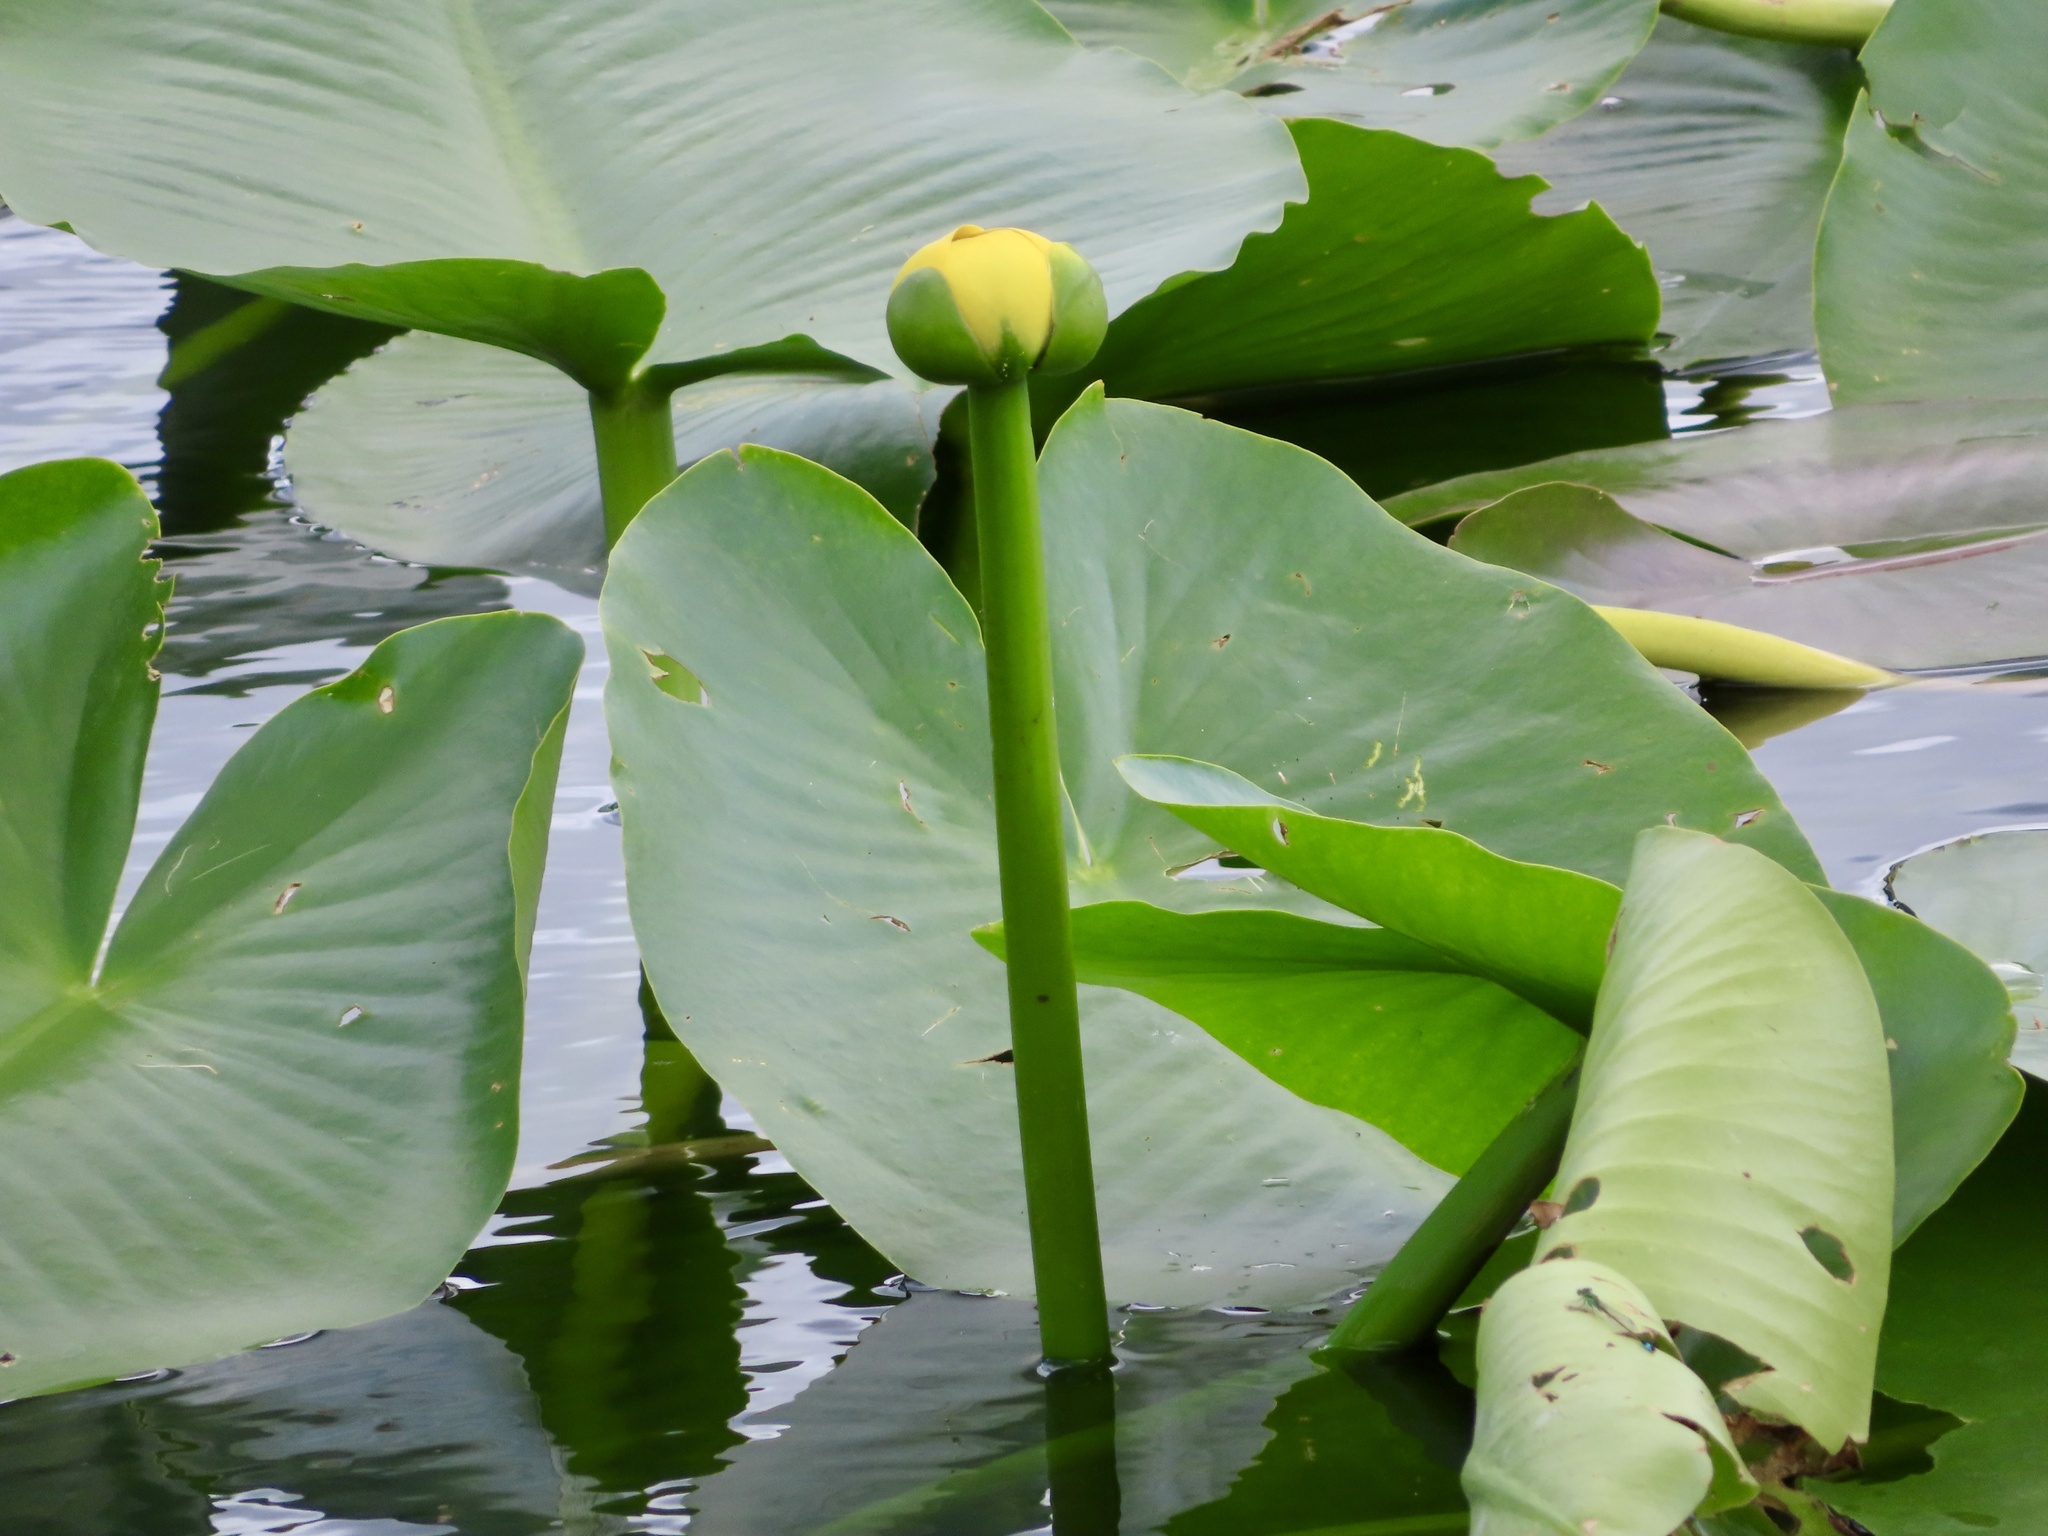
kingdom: Plantae
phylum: Tracheophyta
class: Magnoliopsida
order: Nymphaeales
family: Nymphaeaceae
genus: Nuphar
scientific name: Nuphar advena
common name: Spatter-dock
